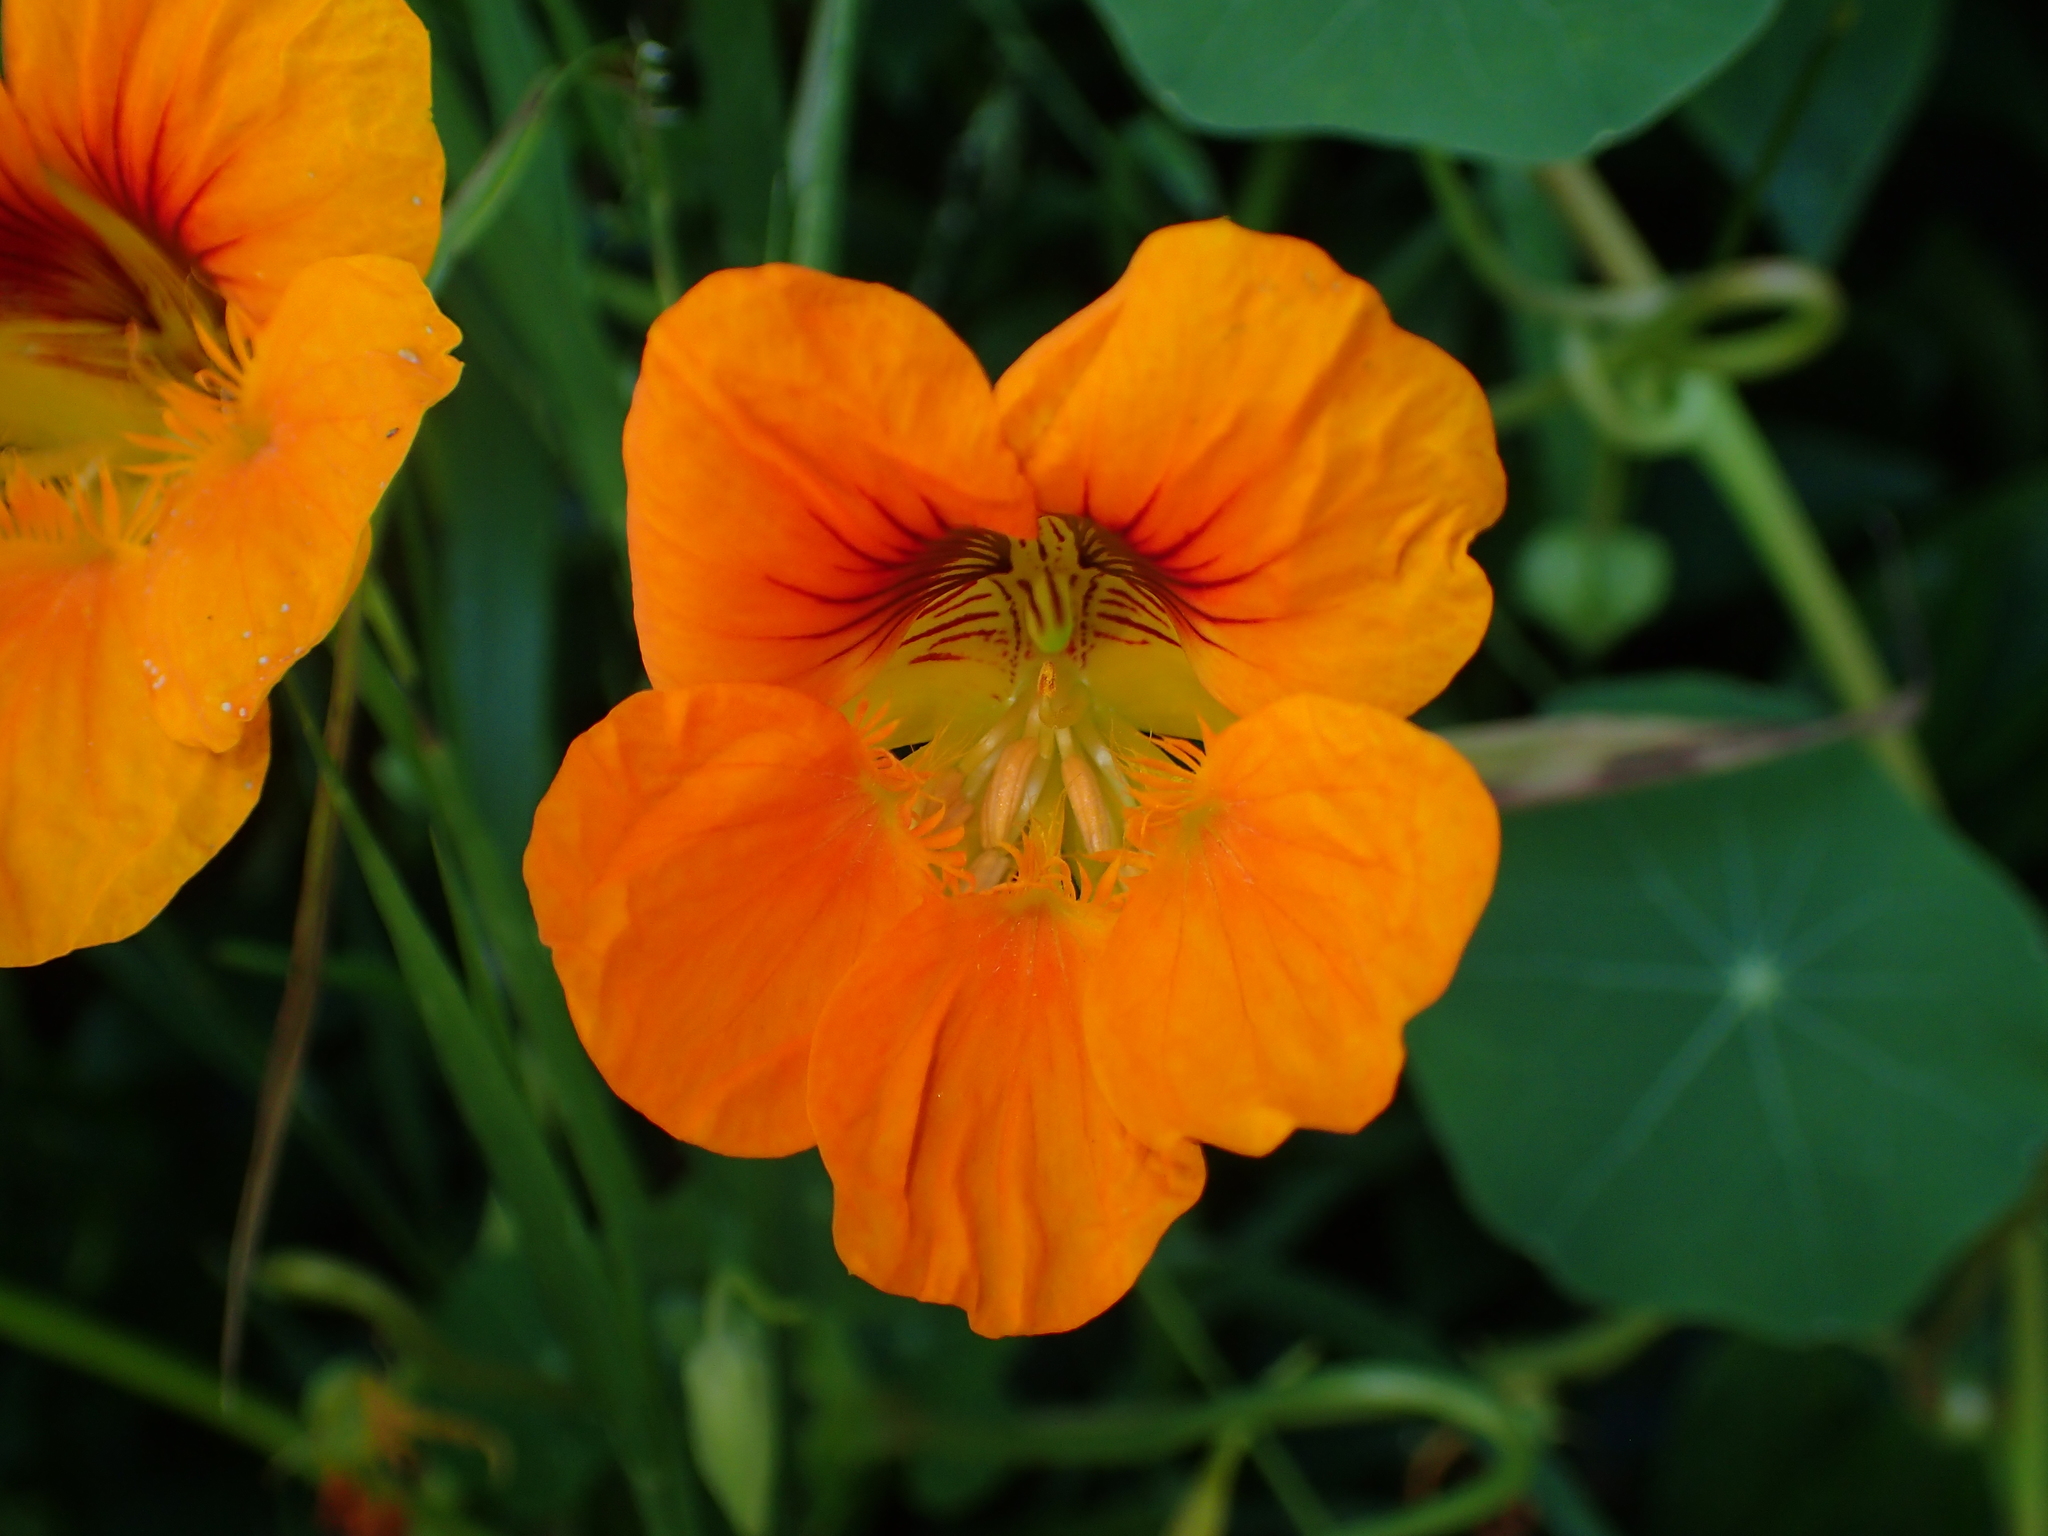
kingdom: Plantae
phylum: Tracheophyta
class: Magnoliopsida
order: Brassicales
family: Tropaeolaceae
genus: Tropaeolum
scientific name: Tropaeolum majus
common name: Nasturtium
